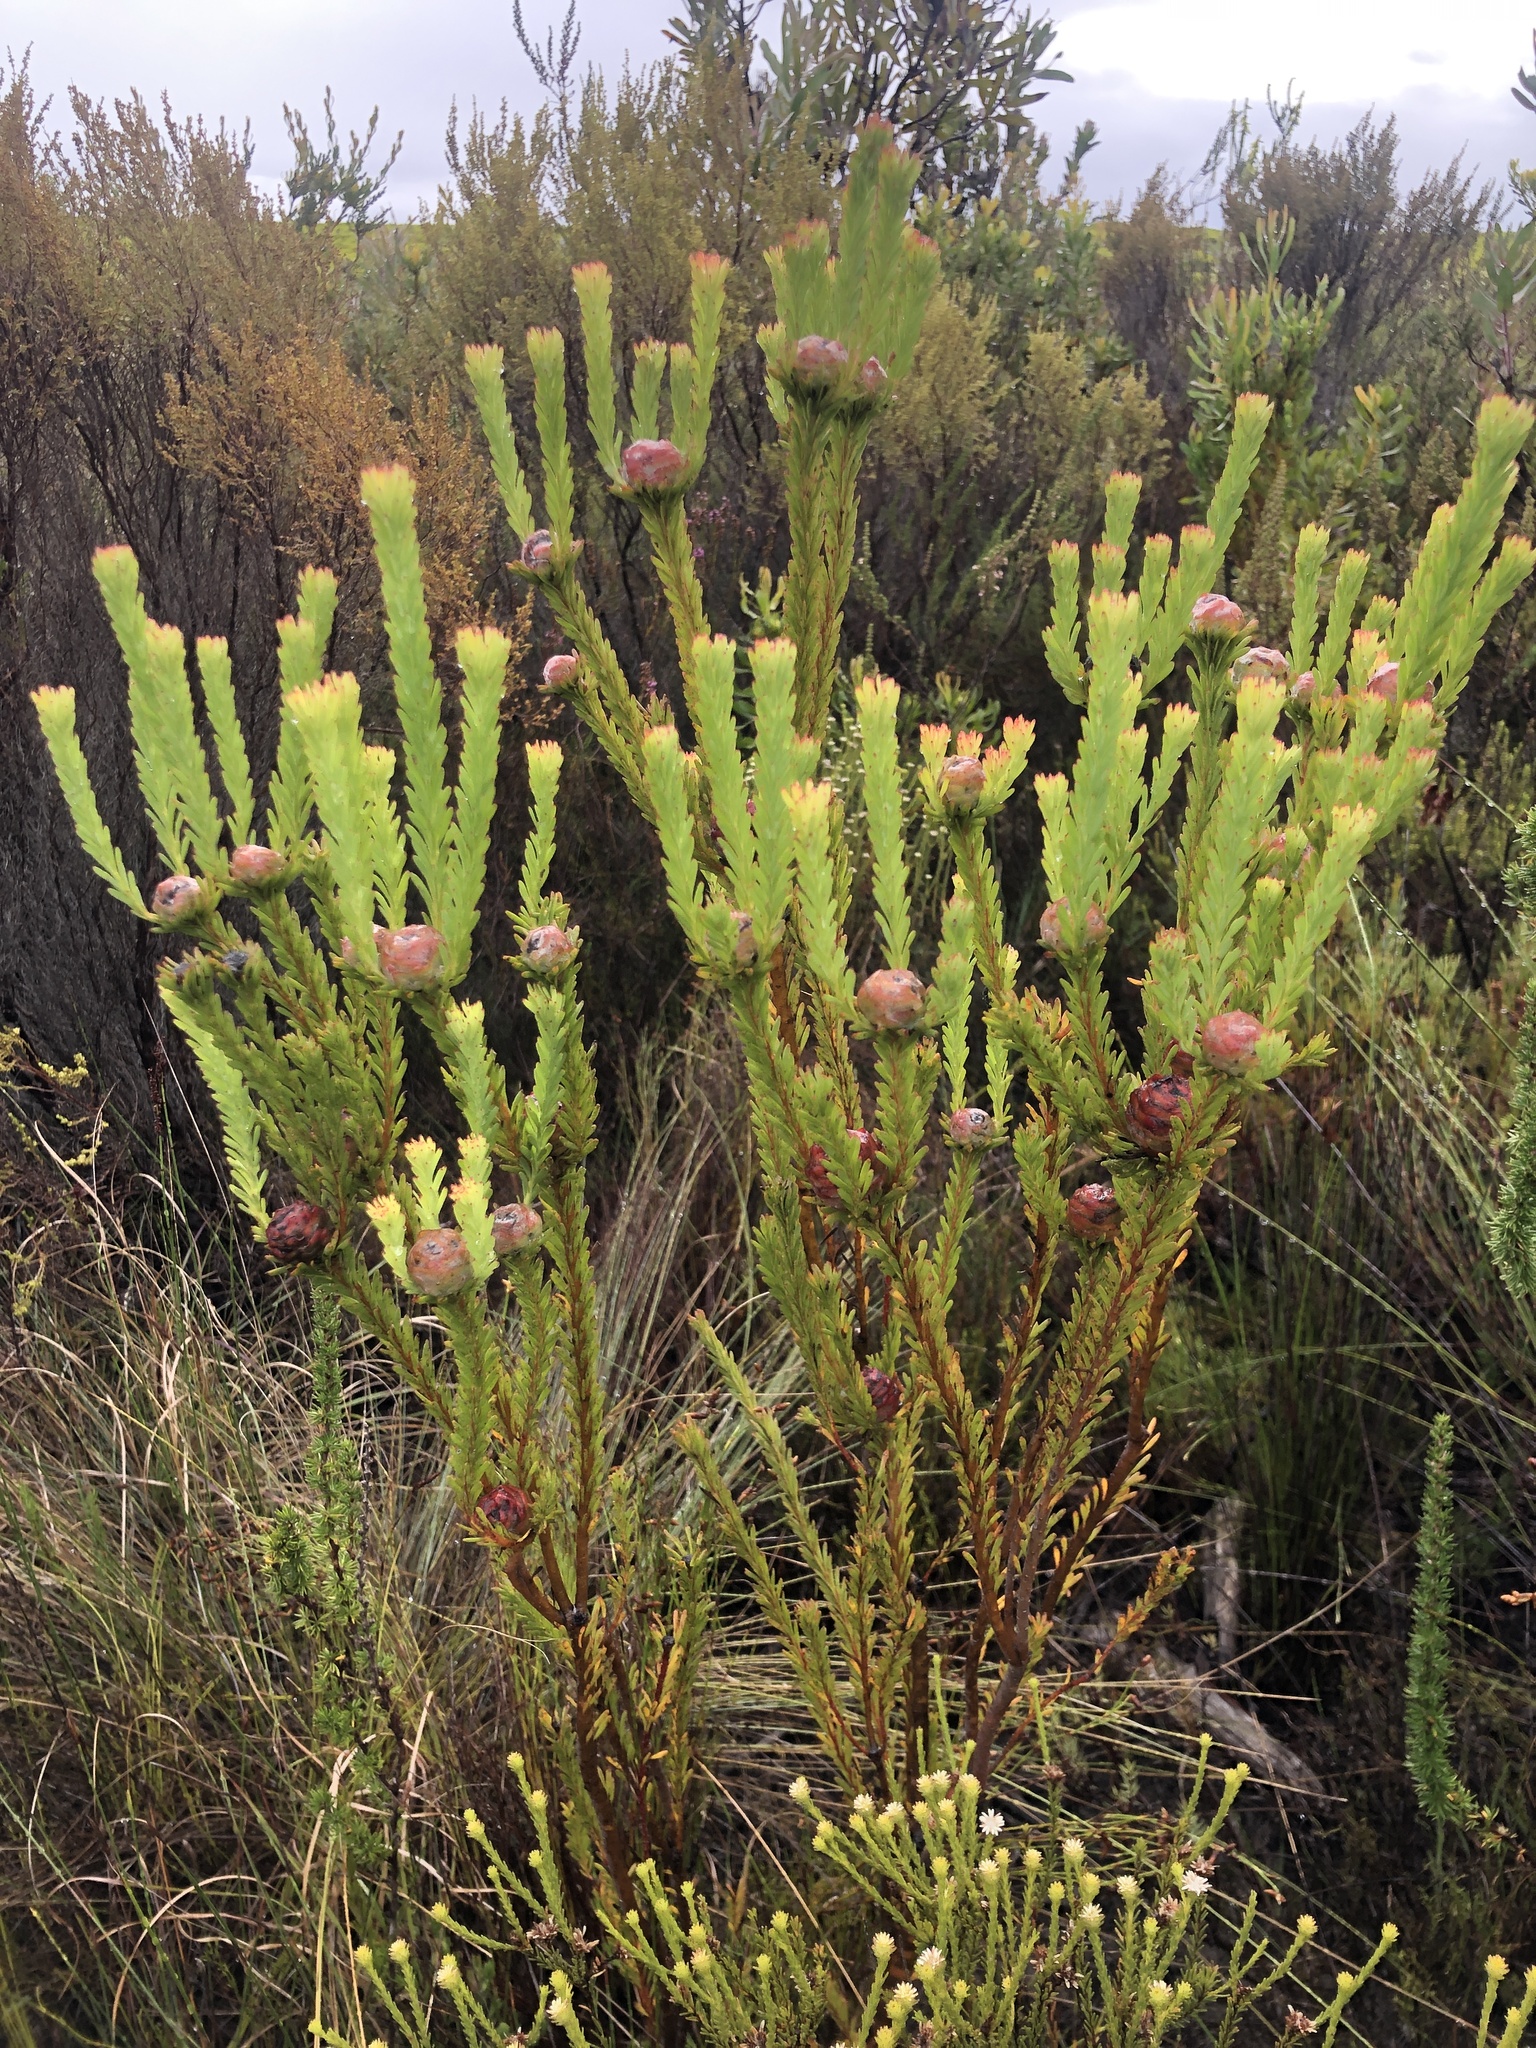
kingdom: Plantae
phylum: Tracheophyta
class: Magnoliopsida
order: Proteales
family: Proteaceae
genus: Leucadendron
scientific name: Leucadendron linifolium
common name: Line-leaf conebush
